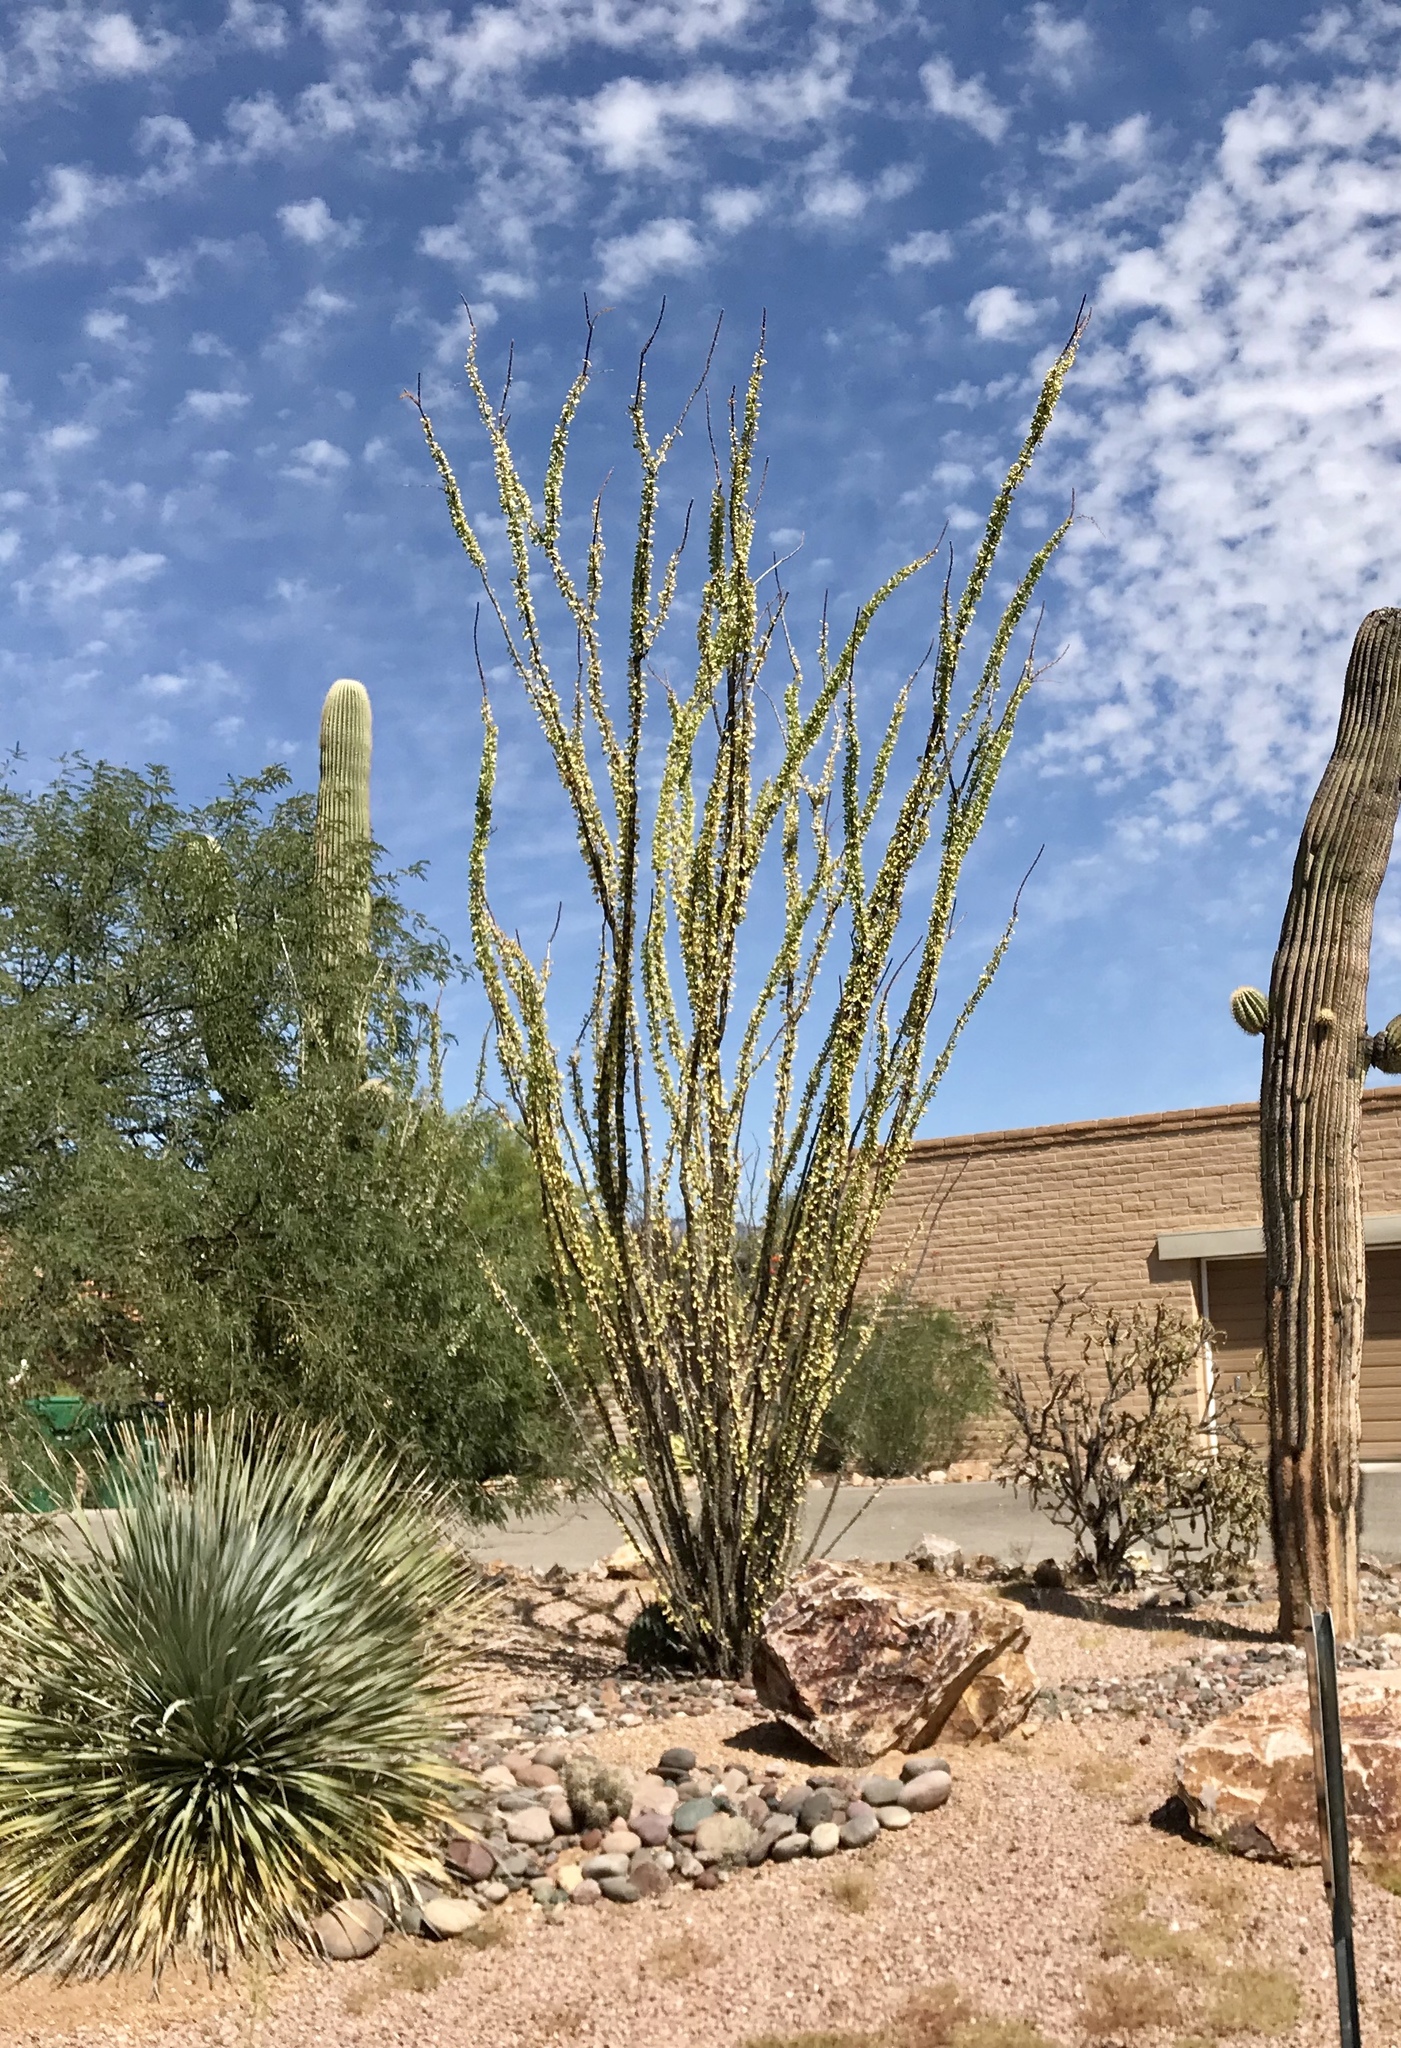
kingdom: Plantae
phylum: Tracheophyta
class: Magnoliopsida
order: Ericales
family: Fouquieriaceae
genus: Fouquieria
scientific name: Fouquieria splendens
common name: Vine-cactus
